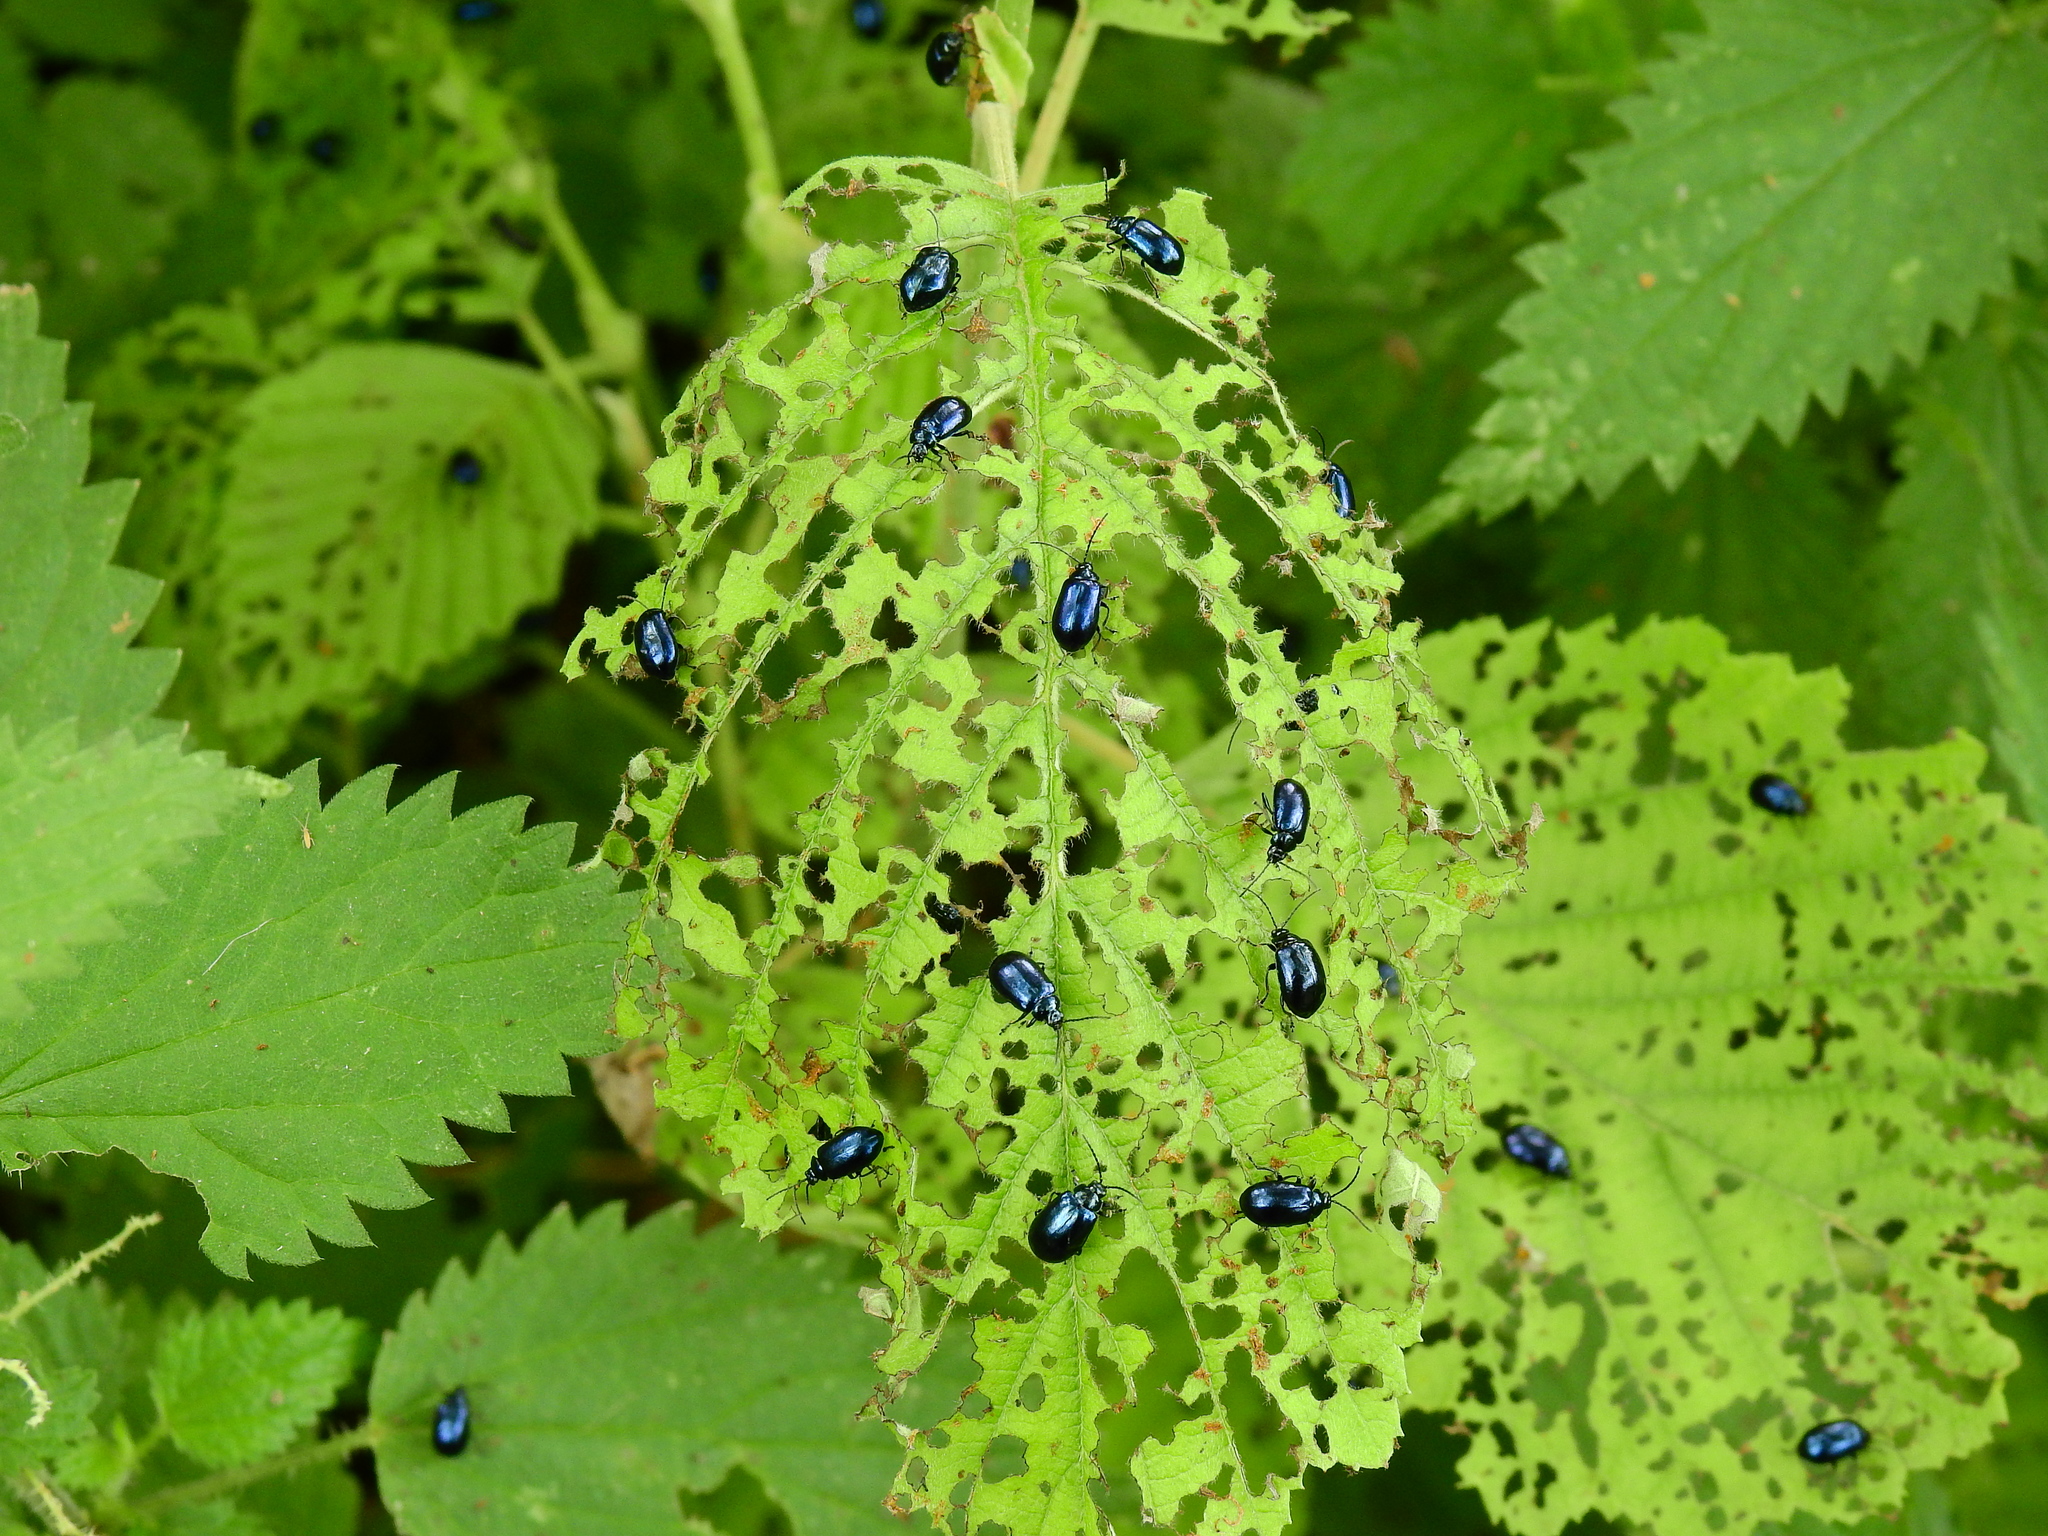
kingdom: Animalia
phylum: Arthropoda
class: Insecta
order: Coleoptera
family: Chrysomelidae
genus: Agelastica
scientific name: Agelastica alni
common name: Alder leaf beetle
